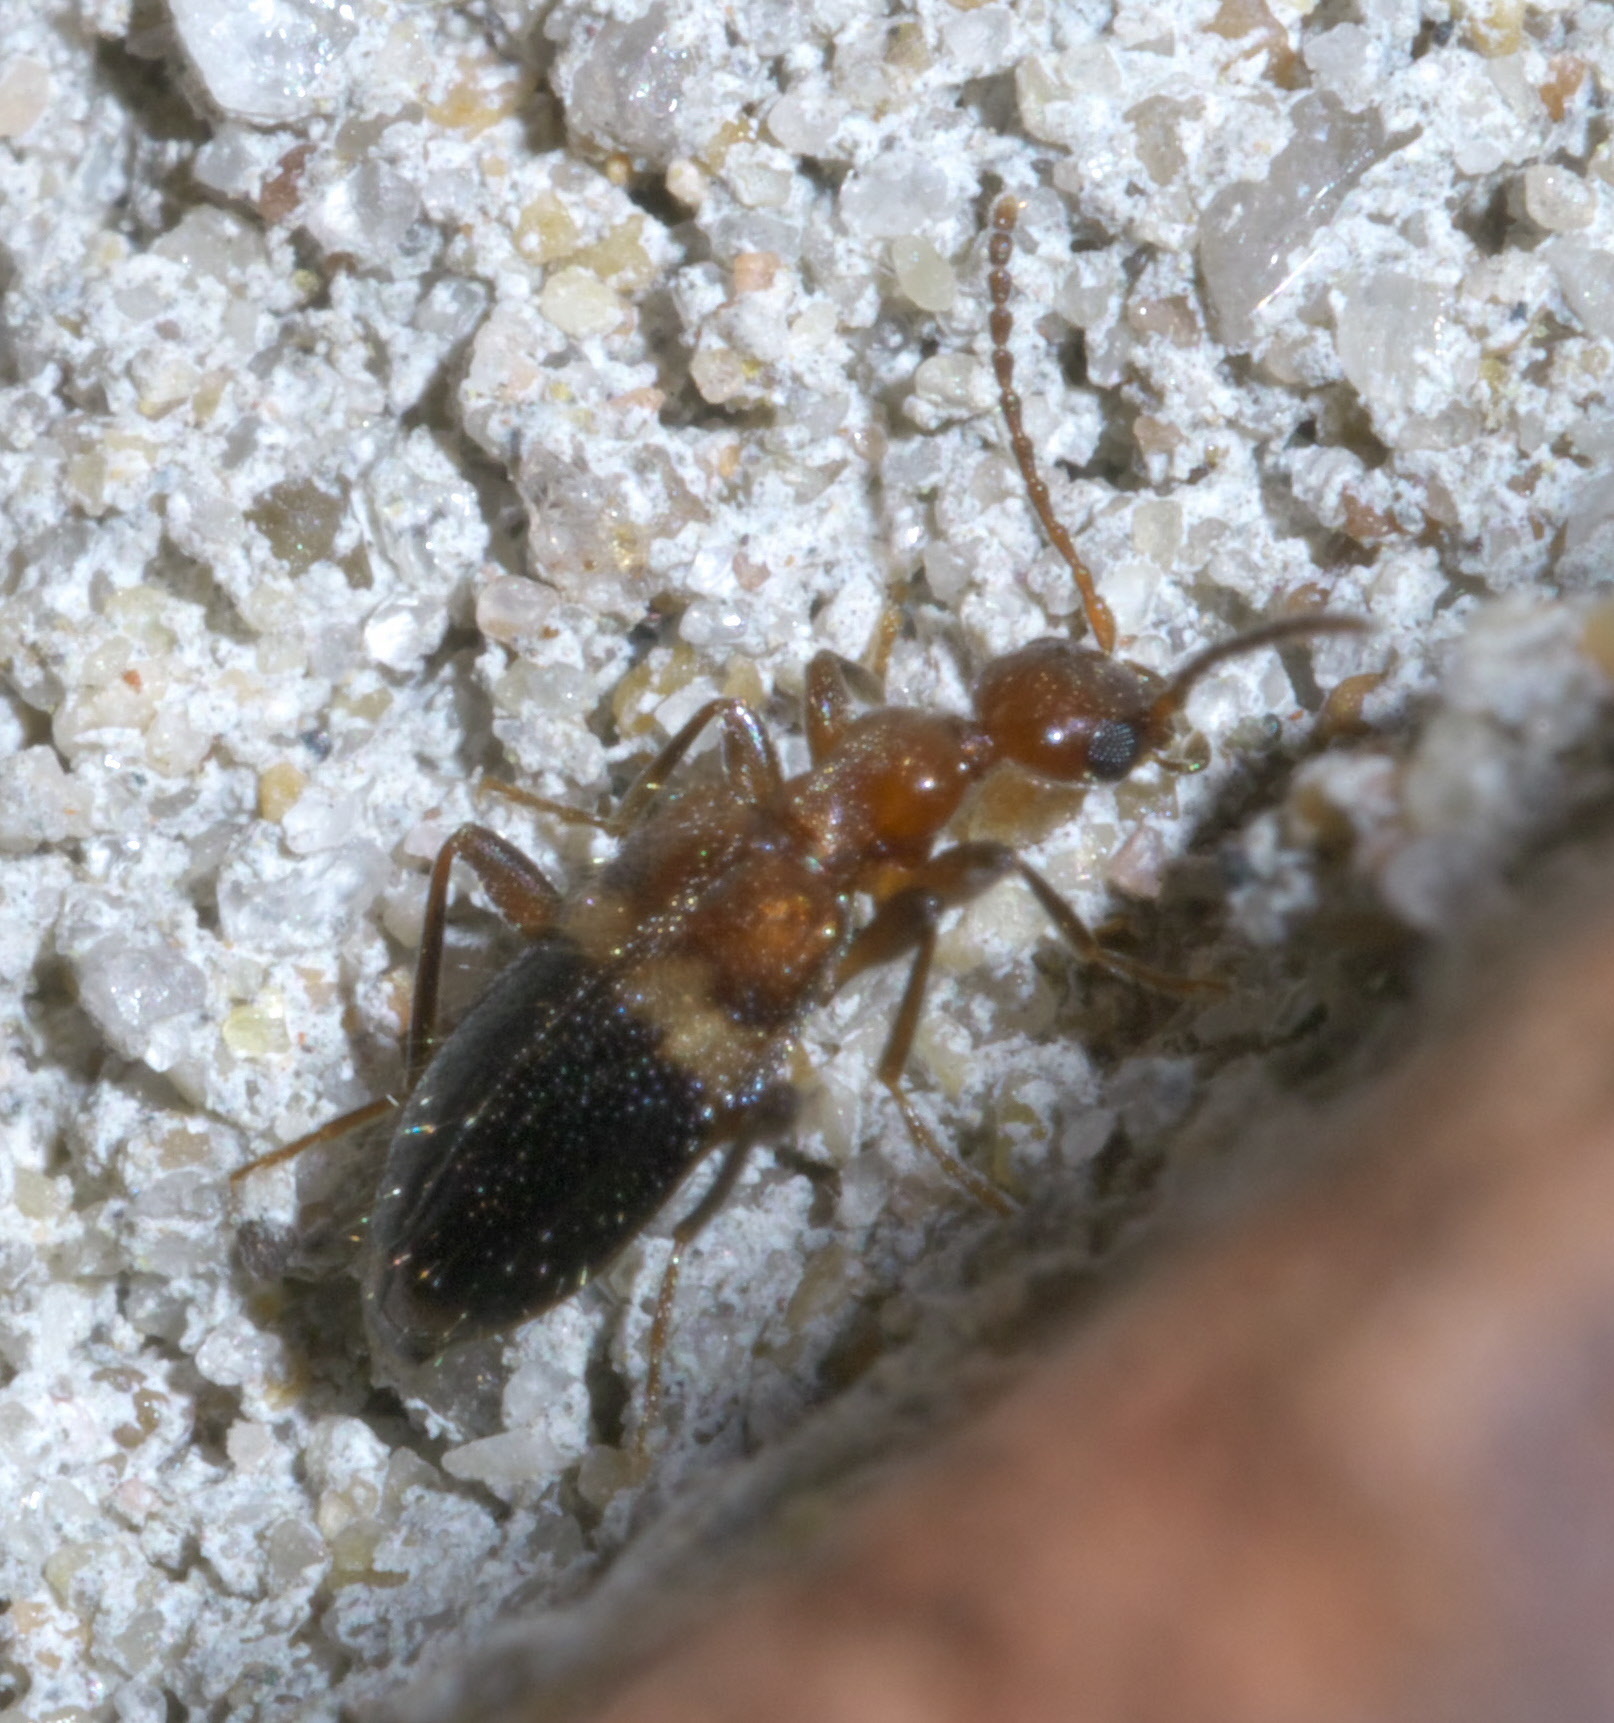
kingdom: Animalia
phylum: Arthropoda
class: Insecta
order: Coleoptera
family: Anthicidae
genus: Malporus
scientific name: Malporus cinctus
